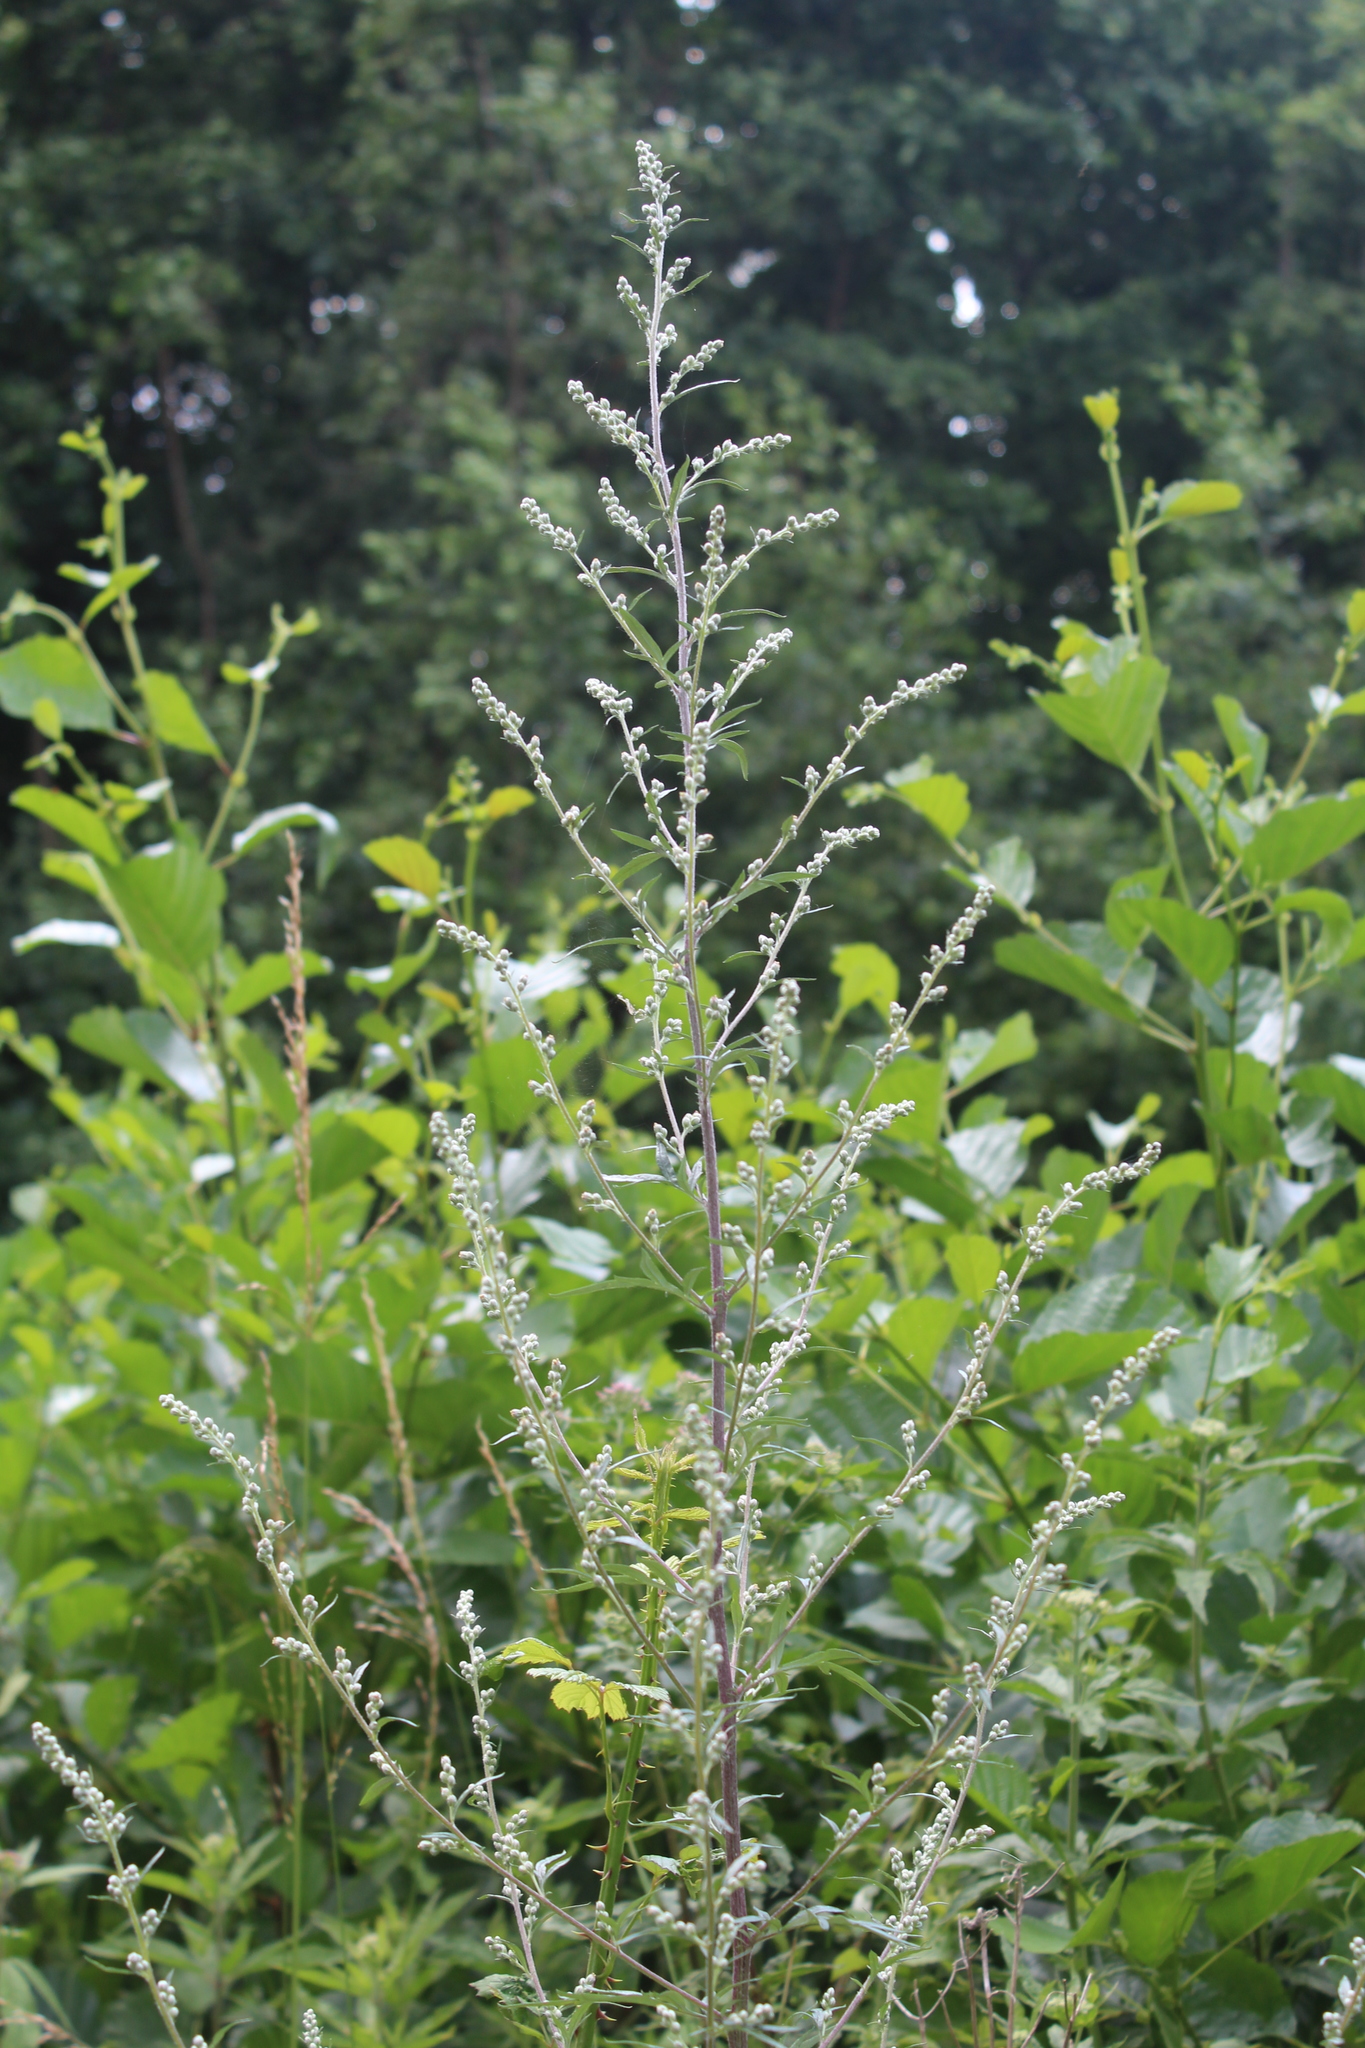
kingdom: Plantae
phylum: Tracheophyta
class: Magnoliopsida
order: Asterales
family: Asteraceae
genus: Artemisia
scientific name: Artemisia vulgaris
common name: Mugwort
